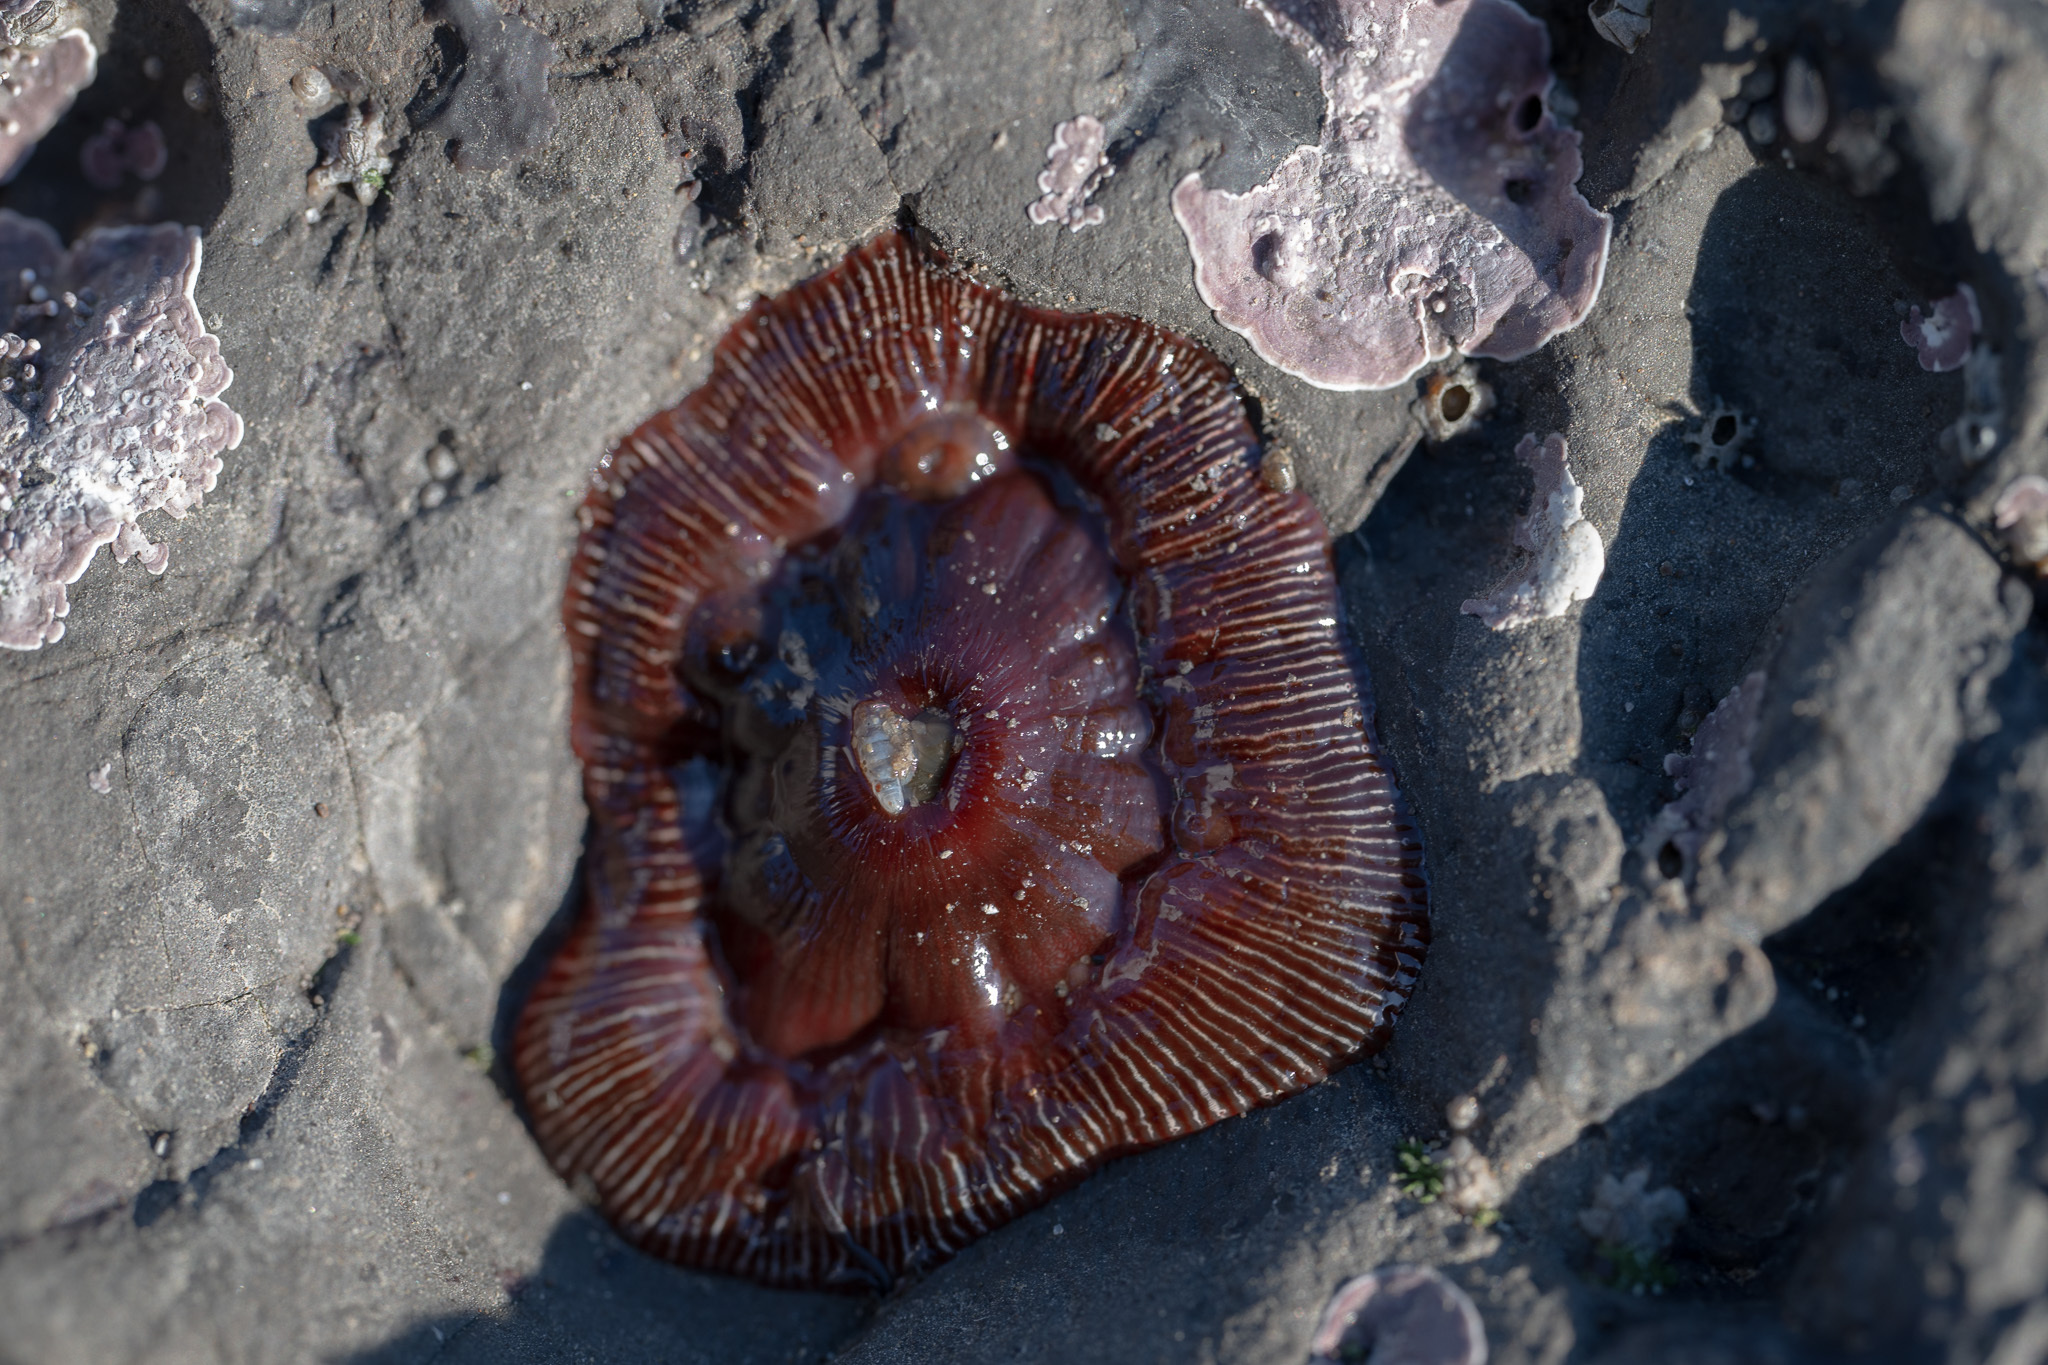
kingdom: Animalia
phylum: Cnidaria
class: Anthozoa
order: Actiniaria
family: Actiniidae
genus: Epiactis
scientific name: Epiactis prolifera
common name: Brooding anemone
